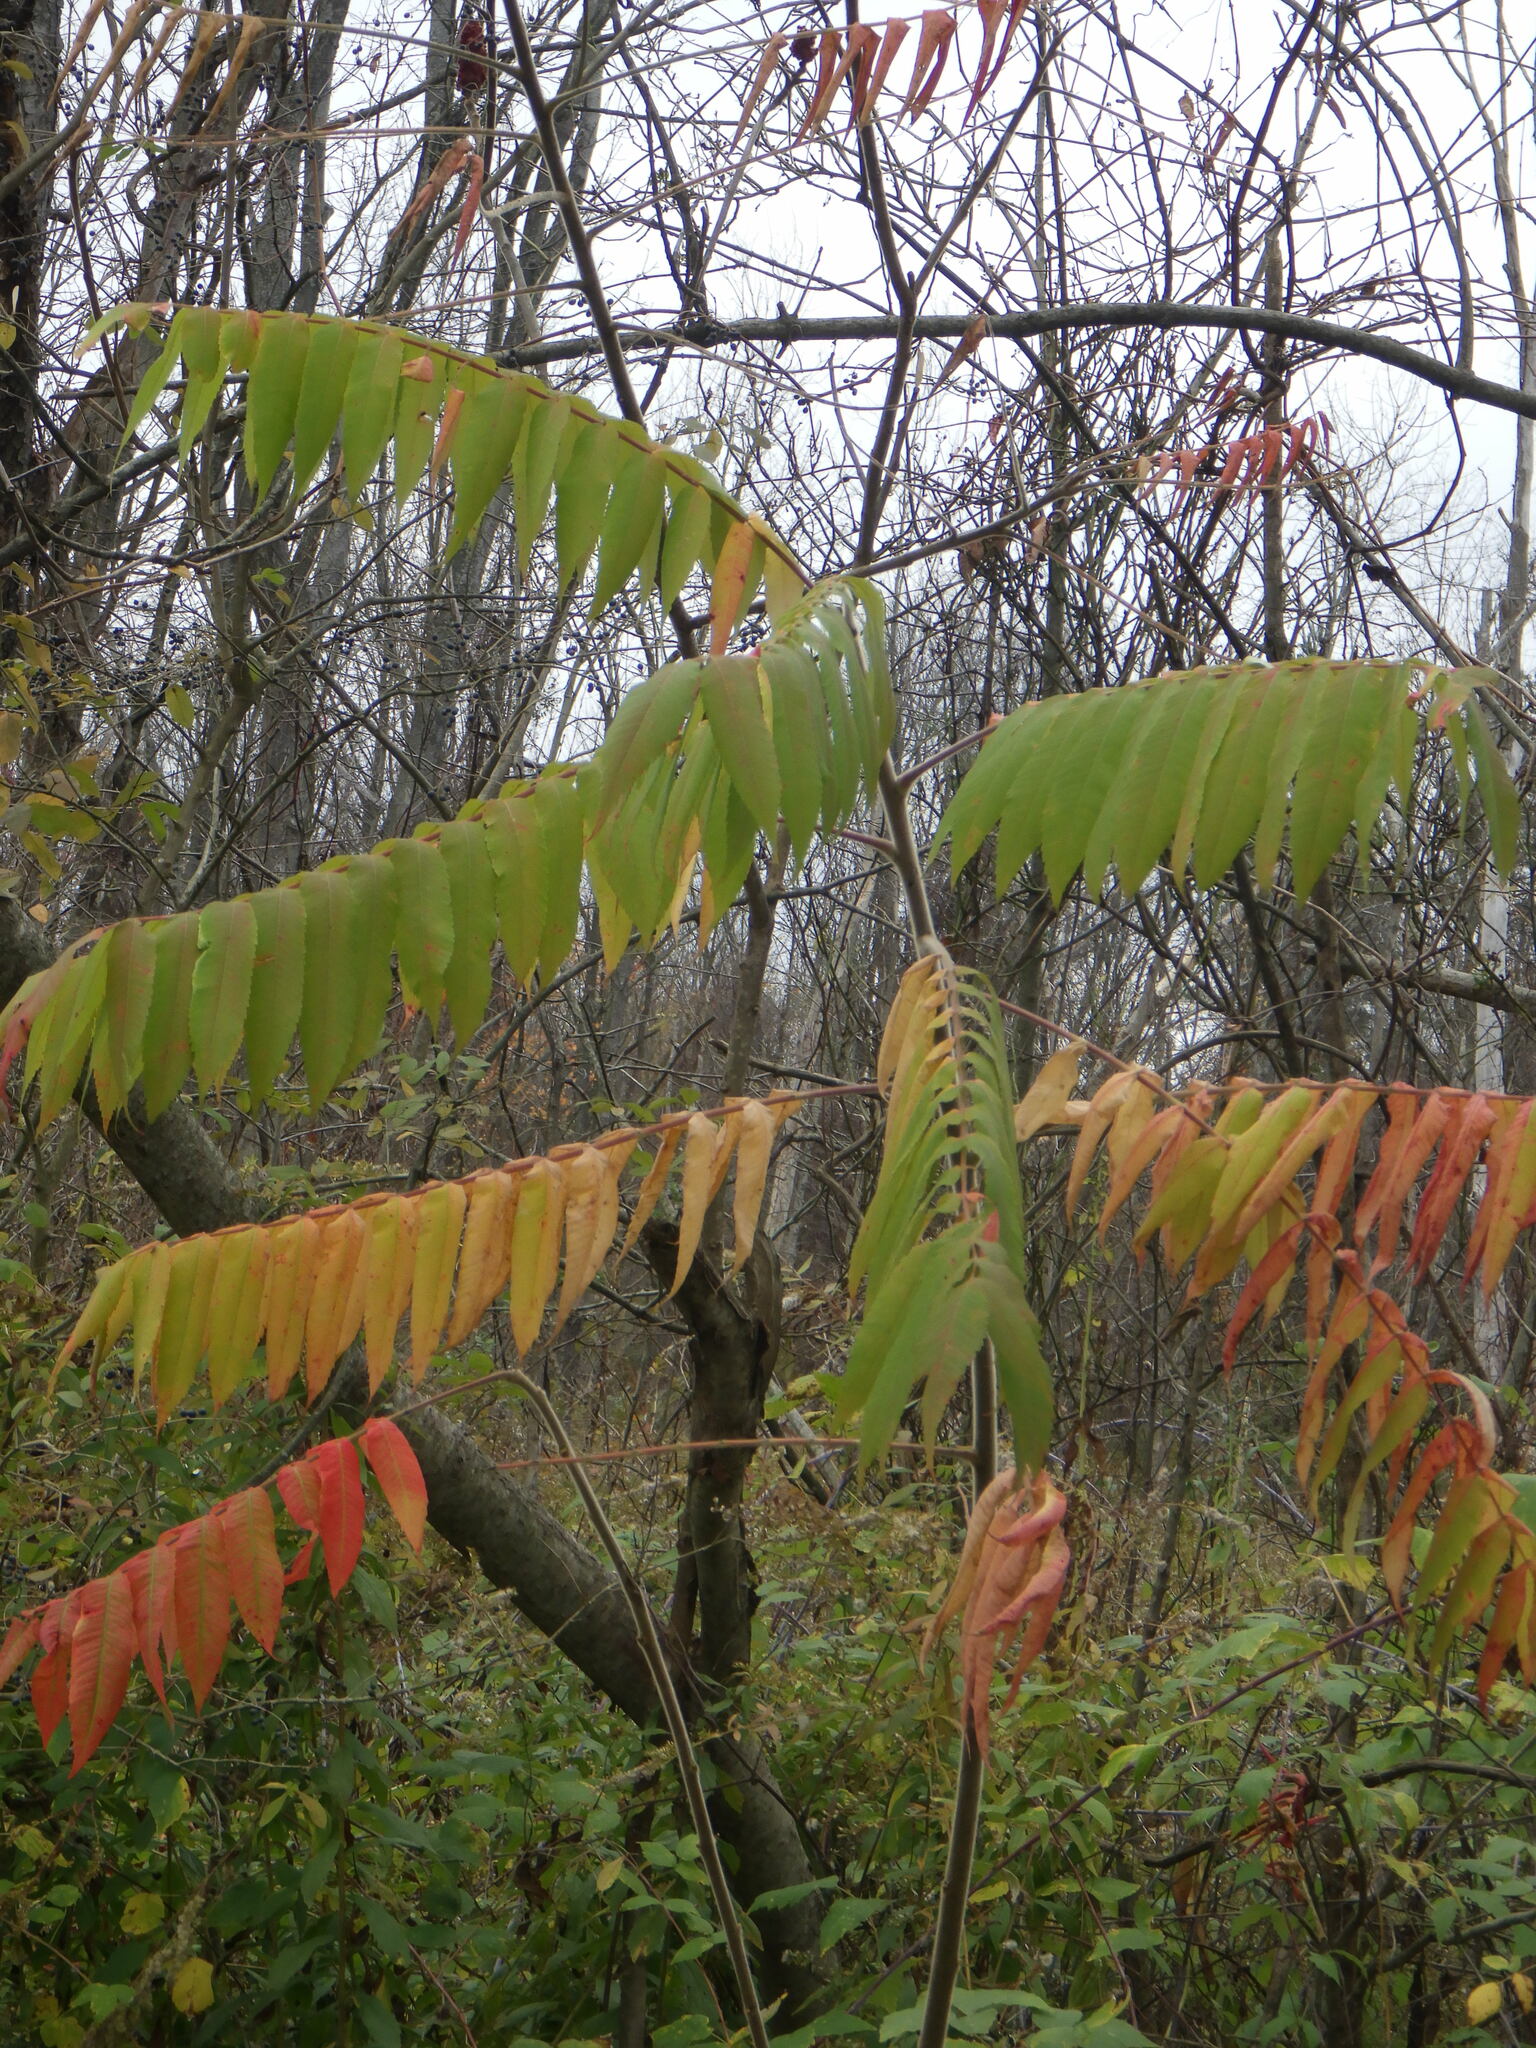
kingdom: Plantae
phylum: Tracheophyta
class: Magnoliopsida
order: Sapindales
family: Anacardiaceae
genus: Rhus
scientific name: Rhus typhina
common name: Staghorn sumac
